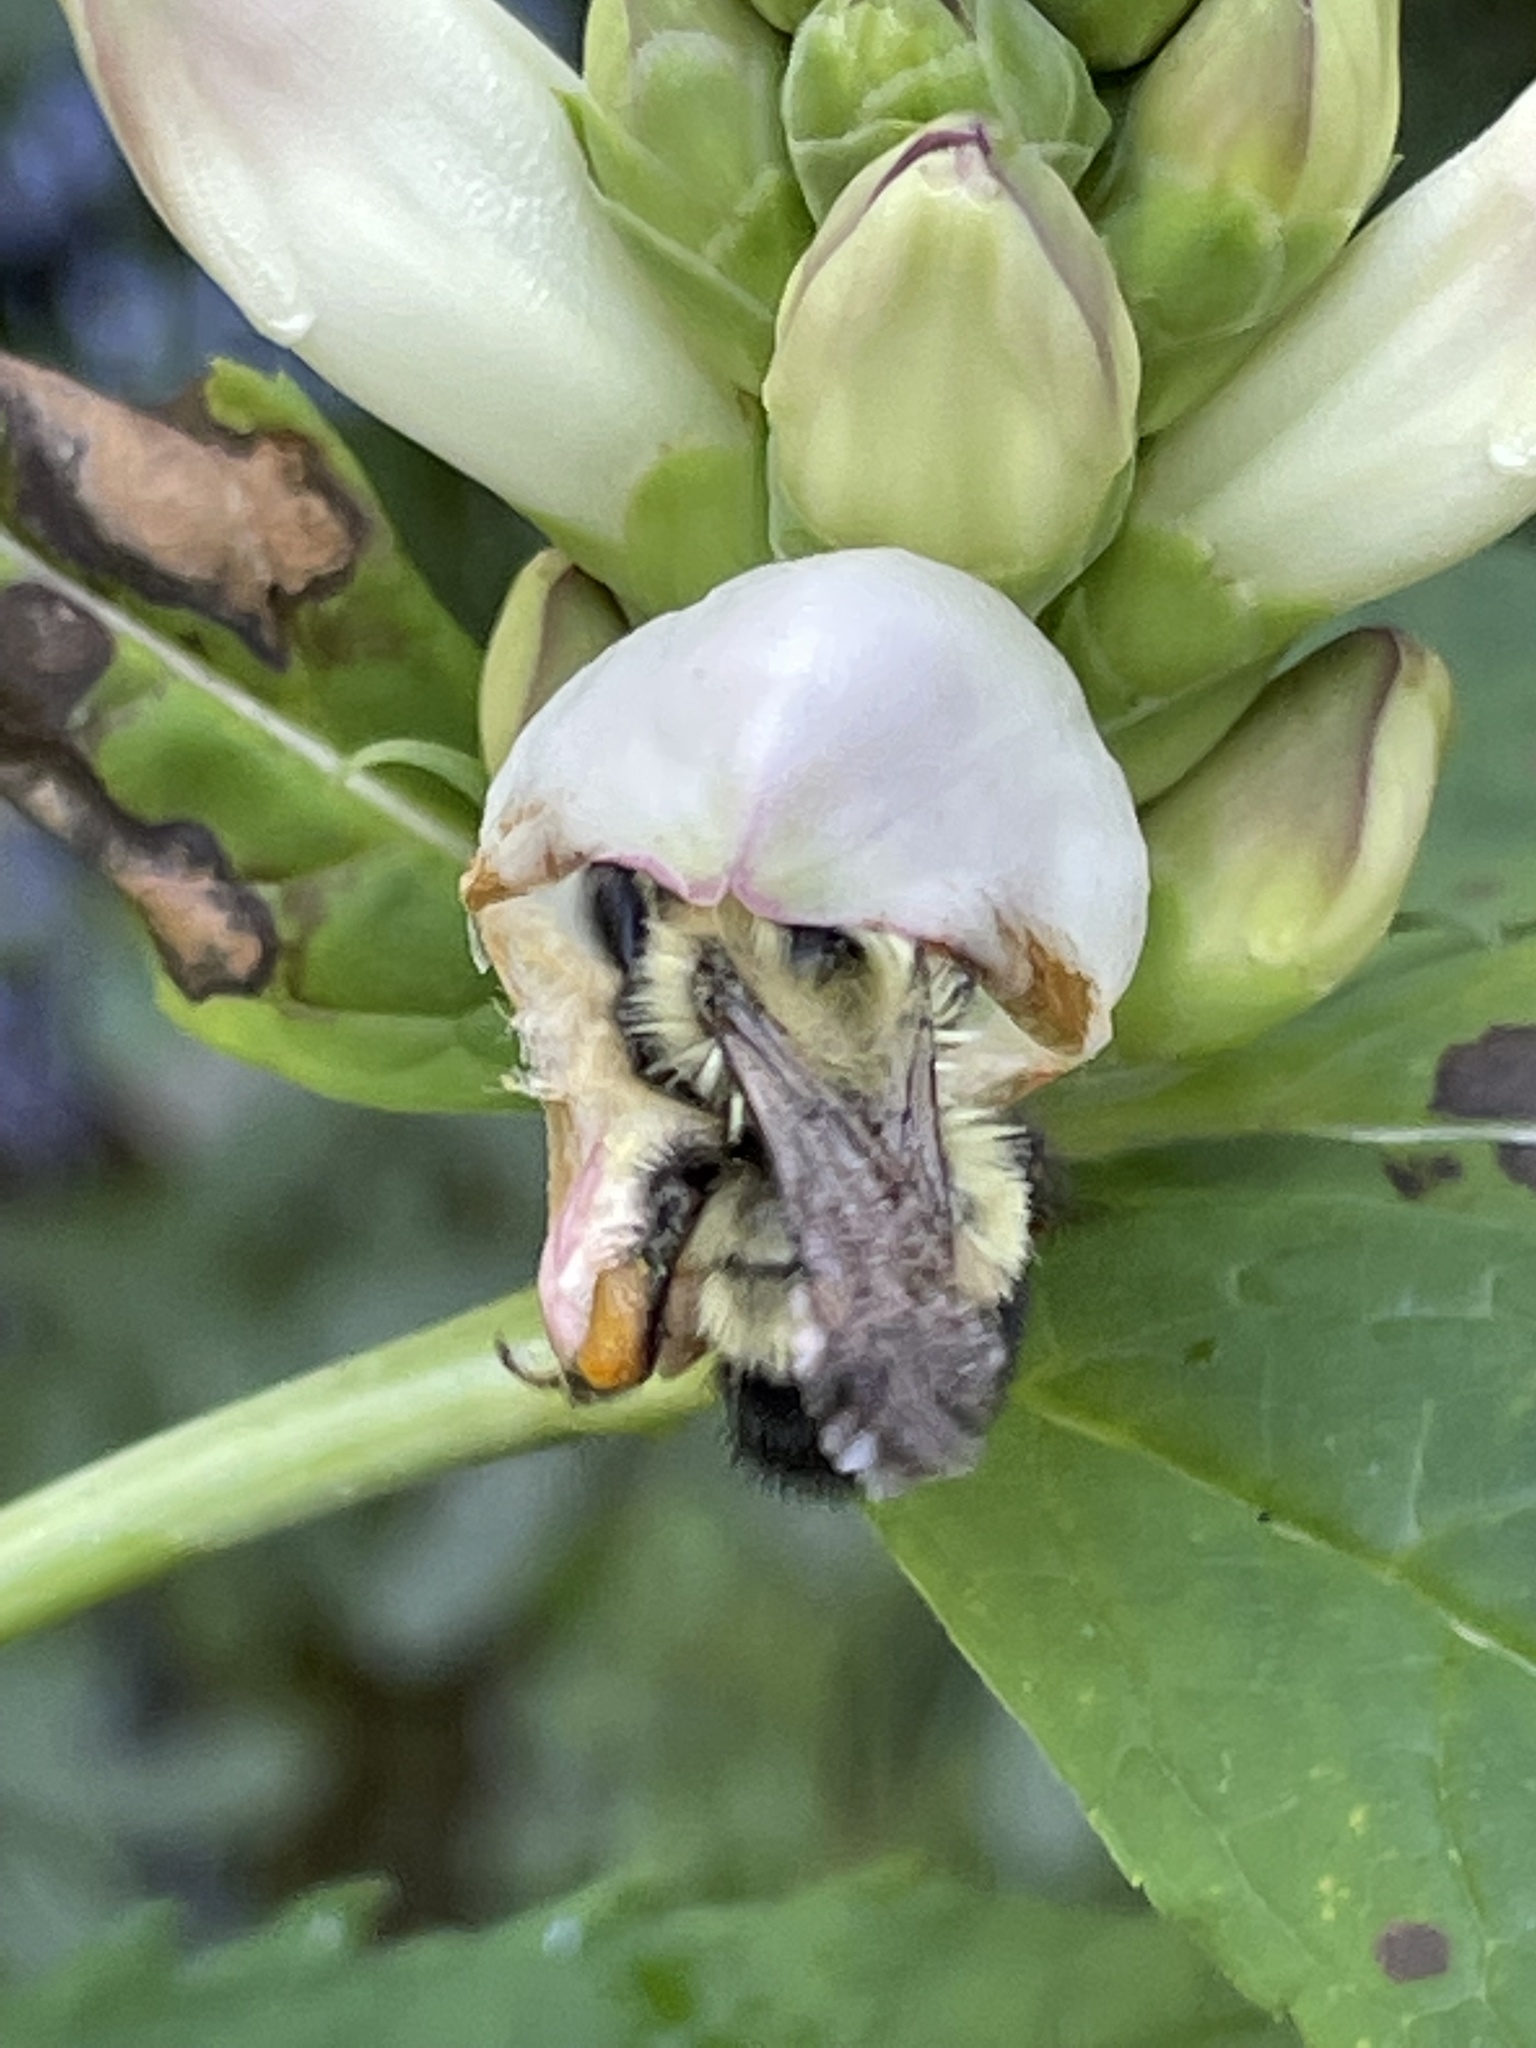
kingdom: Animalia
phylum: Arthropoda
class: Insecta
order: Hymenoptera
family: Apidae
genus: Pyrobombus
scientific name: Pyrobombus
